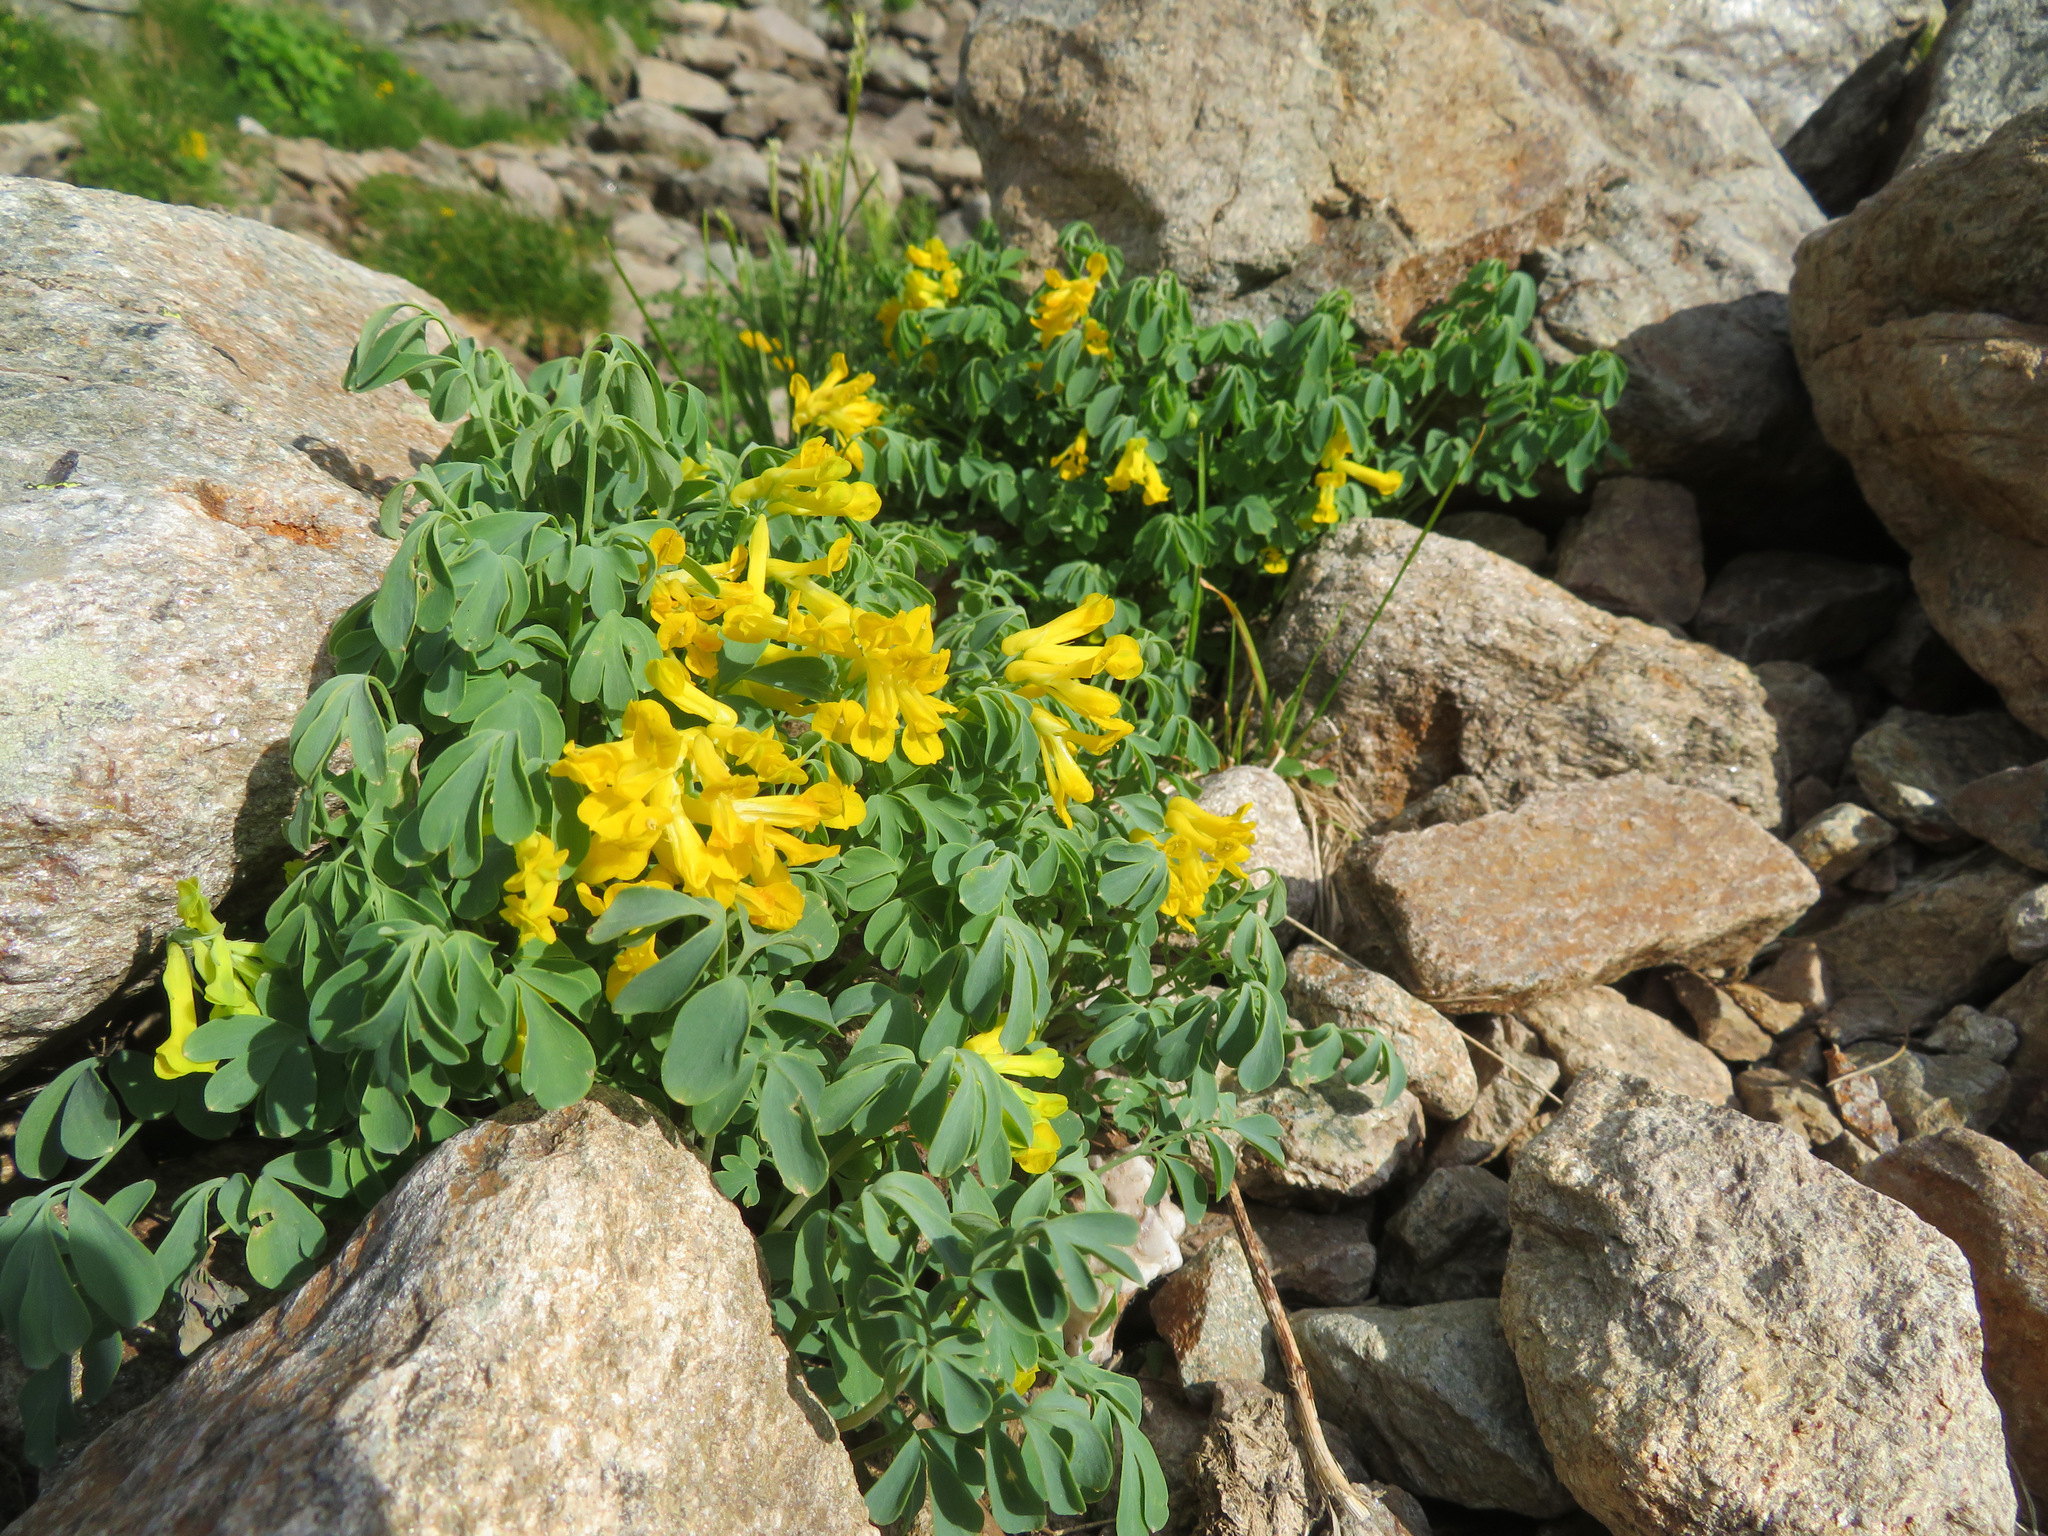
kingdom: Plantae
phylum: Tracheophyta
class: Magnoliopsida
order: Ranunculales
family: Papaveraceae
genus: Pseudofumaria
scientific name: Pseudofumaria lutea
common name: Yellow corydalis
